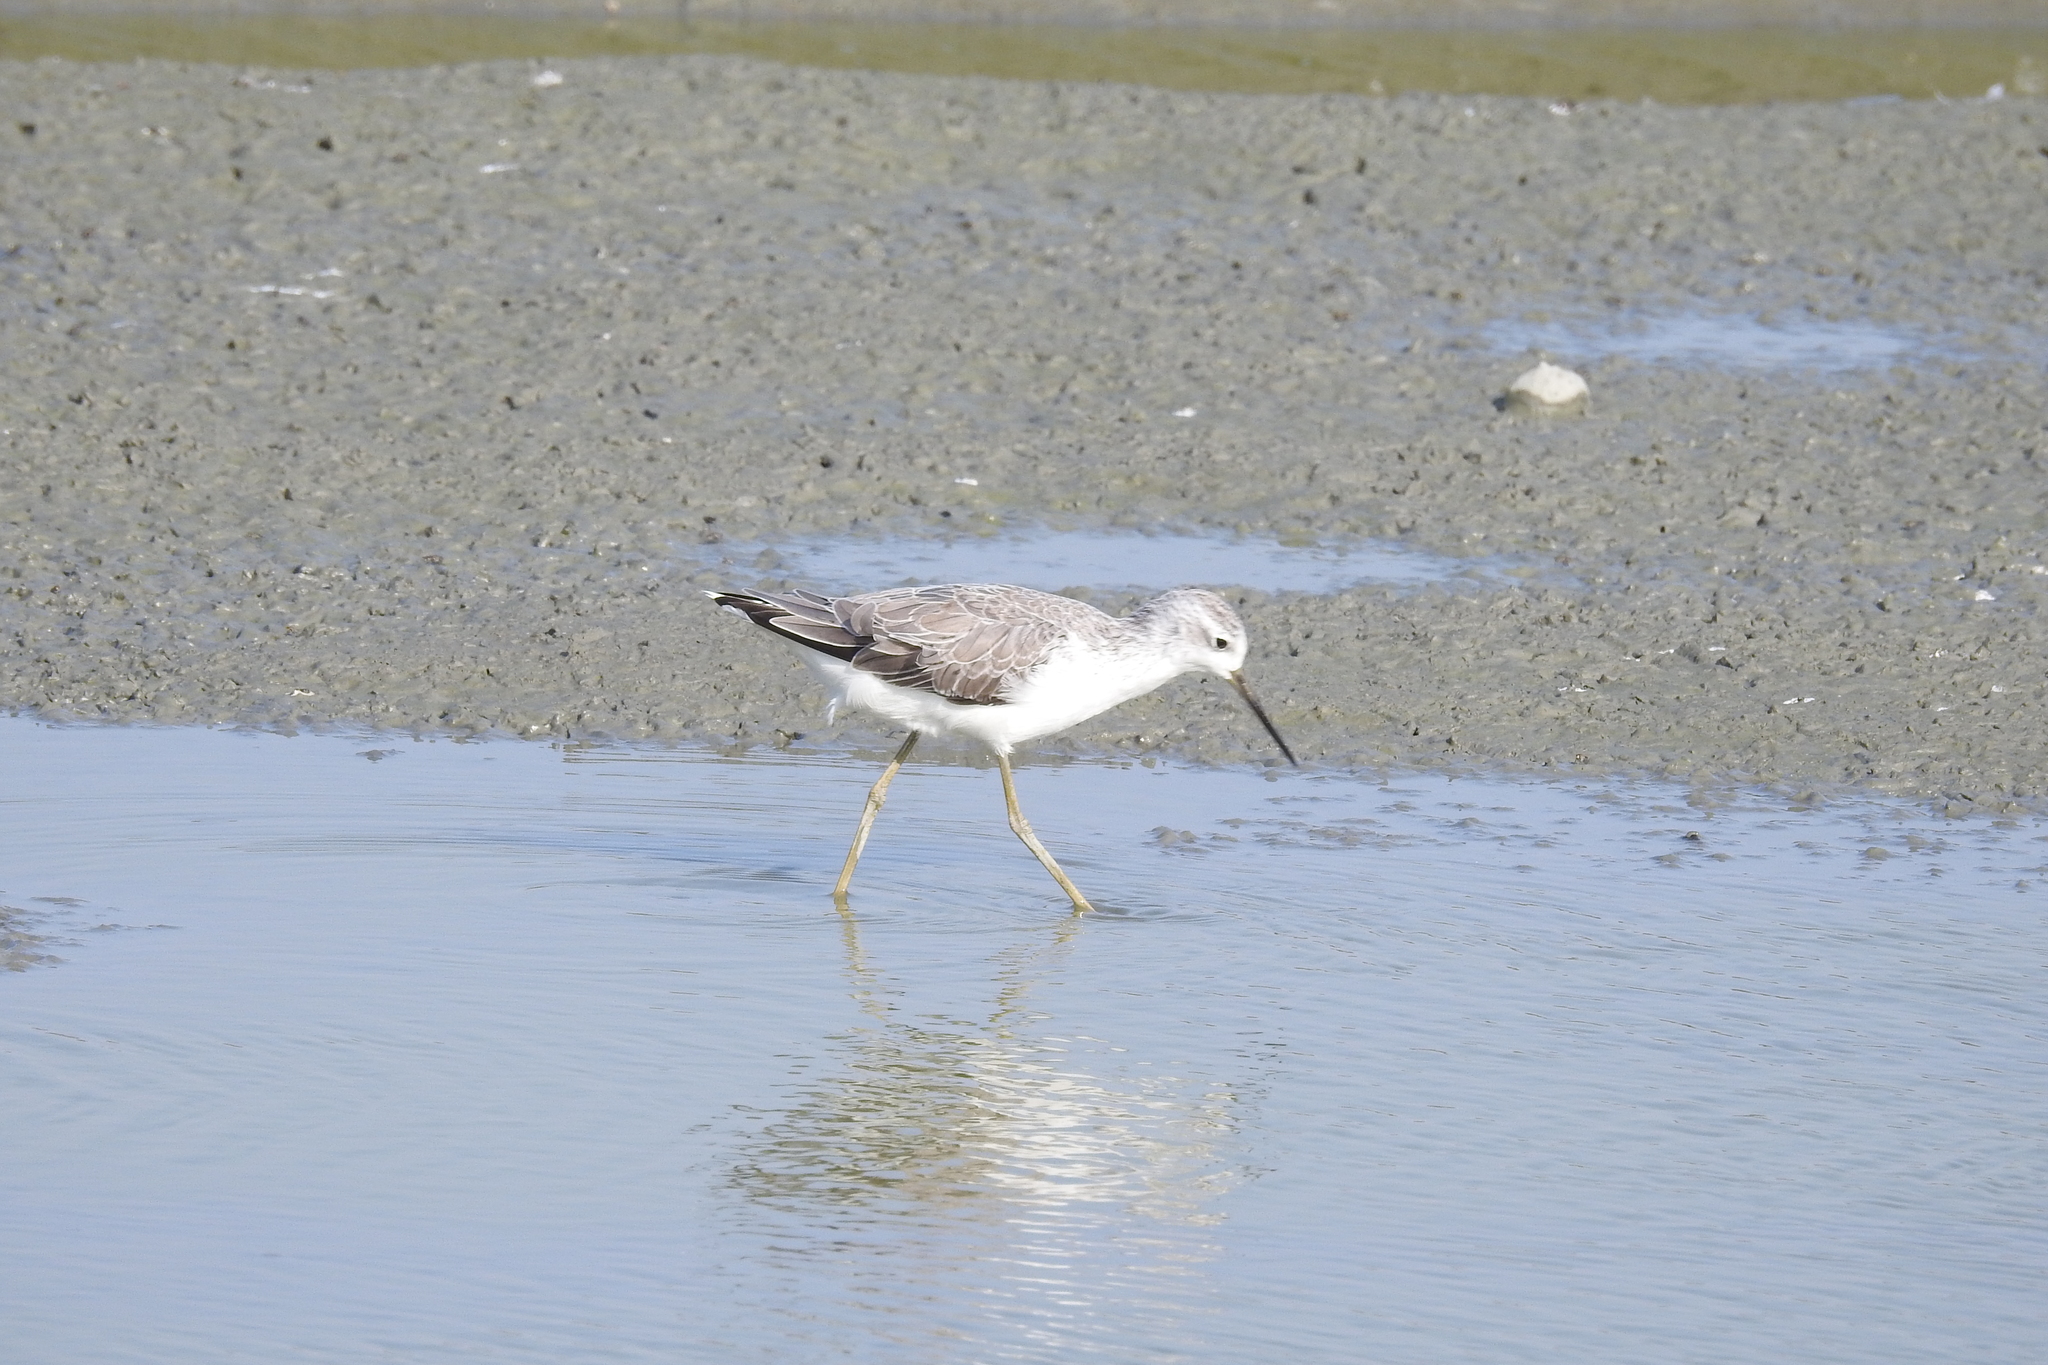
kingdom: Animalia
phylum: Chordata
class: Aves
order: Charadriiformes
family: Scolopacidae
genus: Tringa
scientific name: Tringa stagnatilis
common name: Marsh sandpiper
